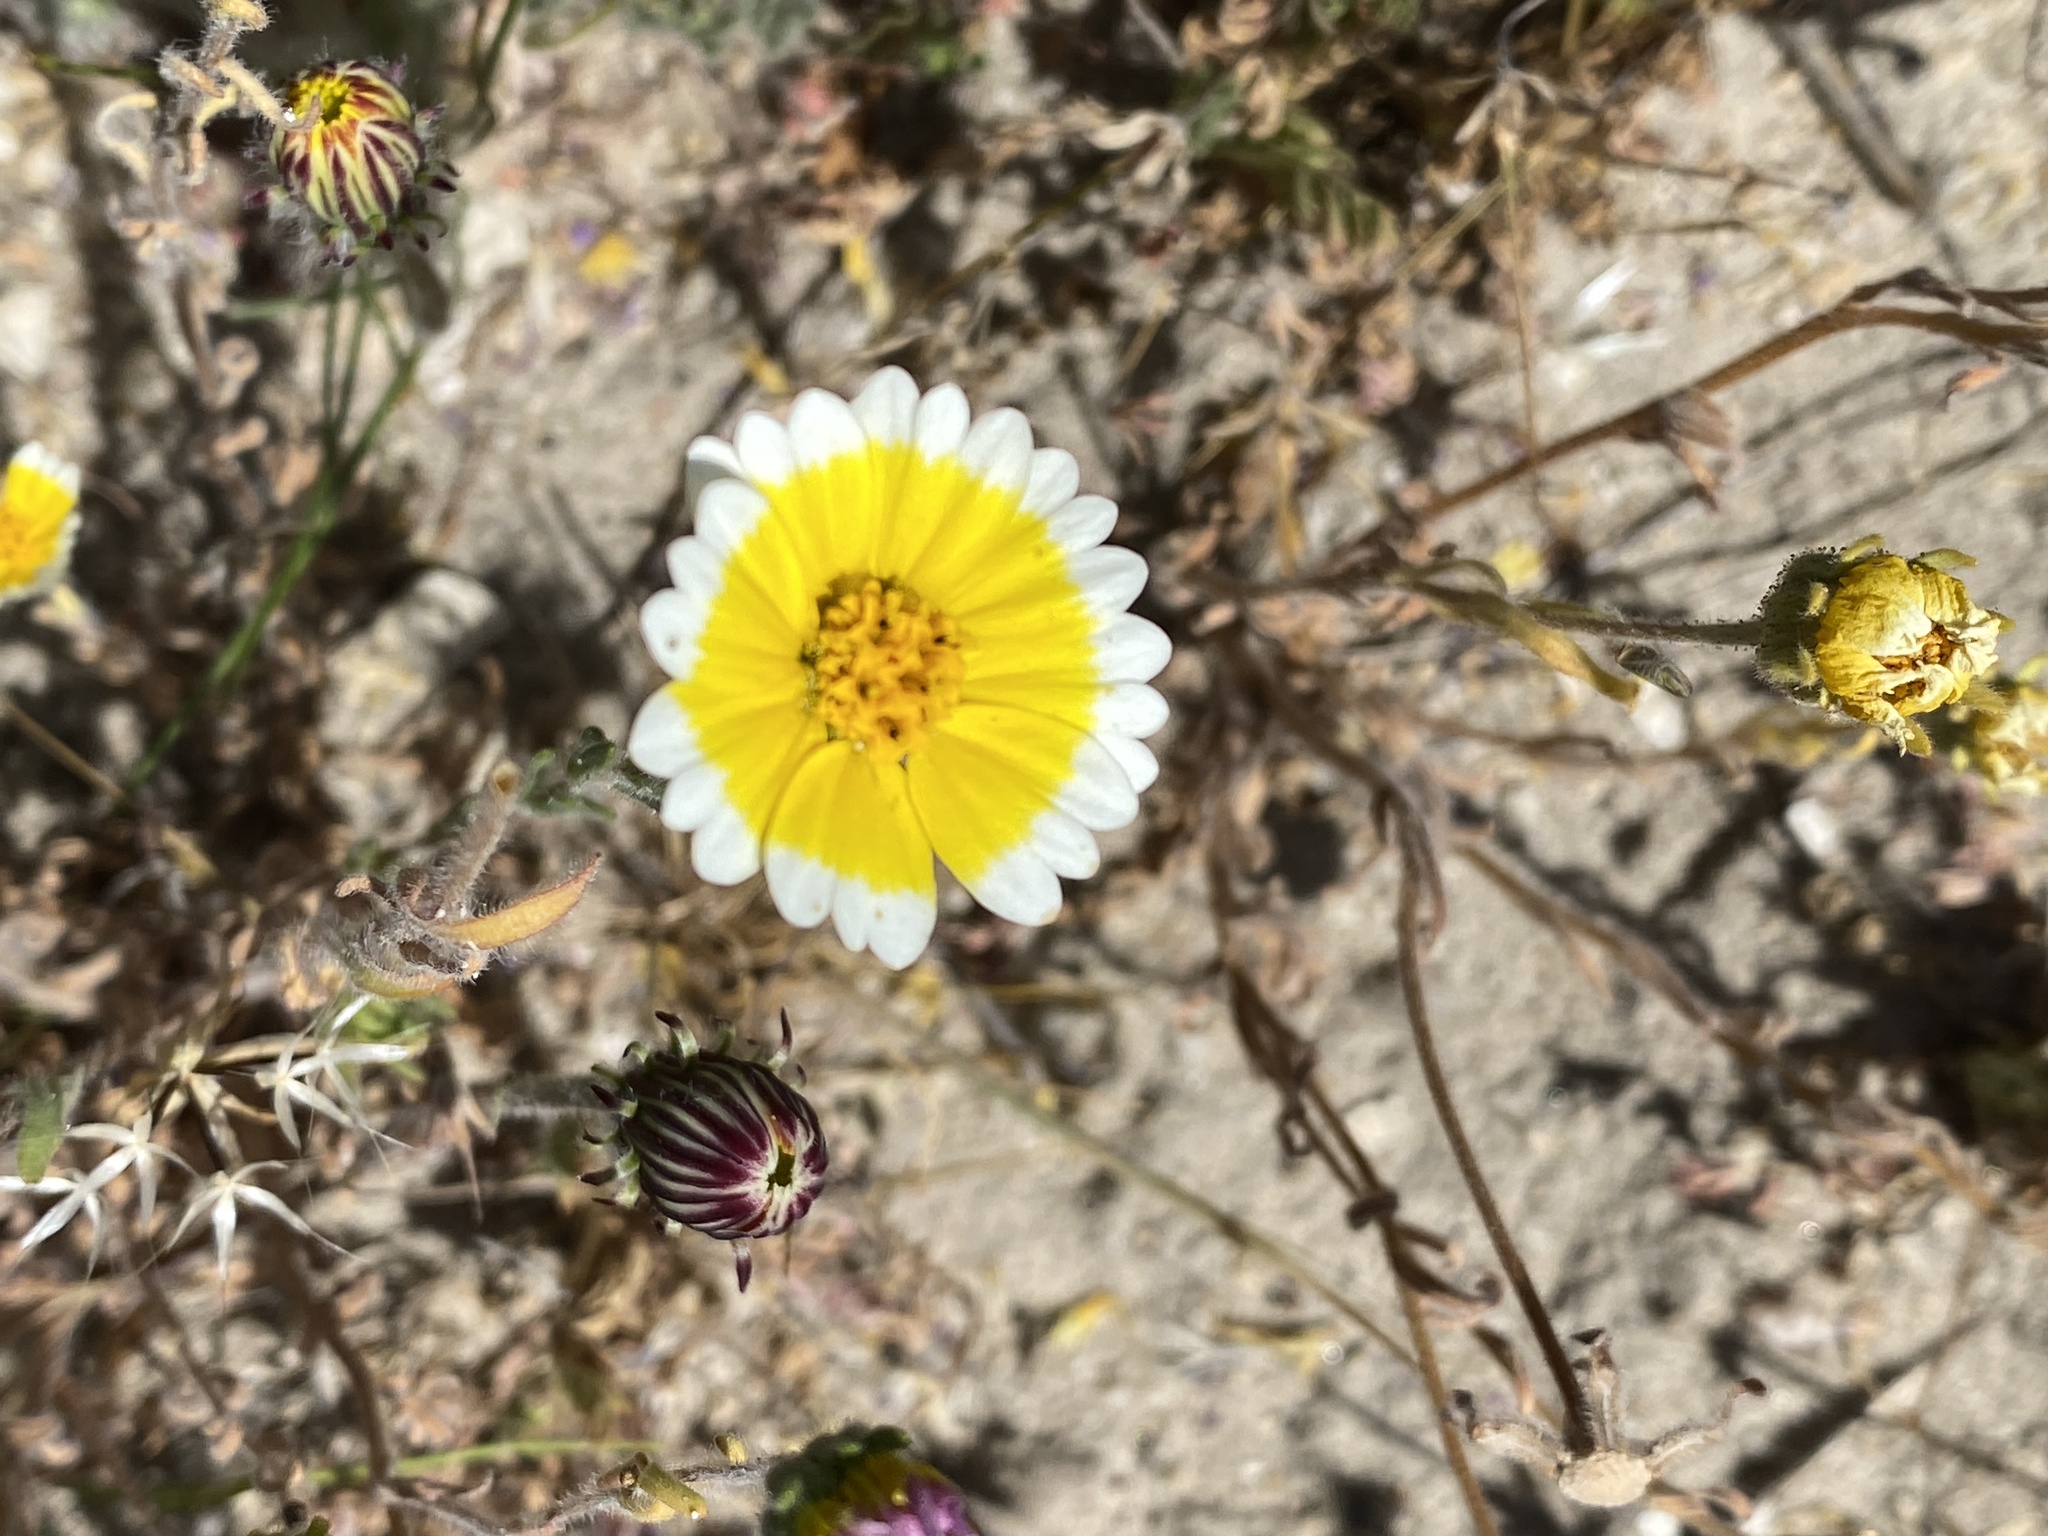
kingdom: Plantae
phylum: Tracheophyta
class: Magnoliopsida
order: Asterales
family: Asteraceae
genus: Layia
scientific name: Layia platyglossa
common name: Tidy-tips
